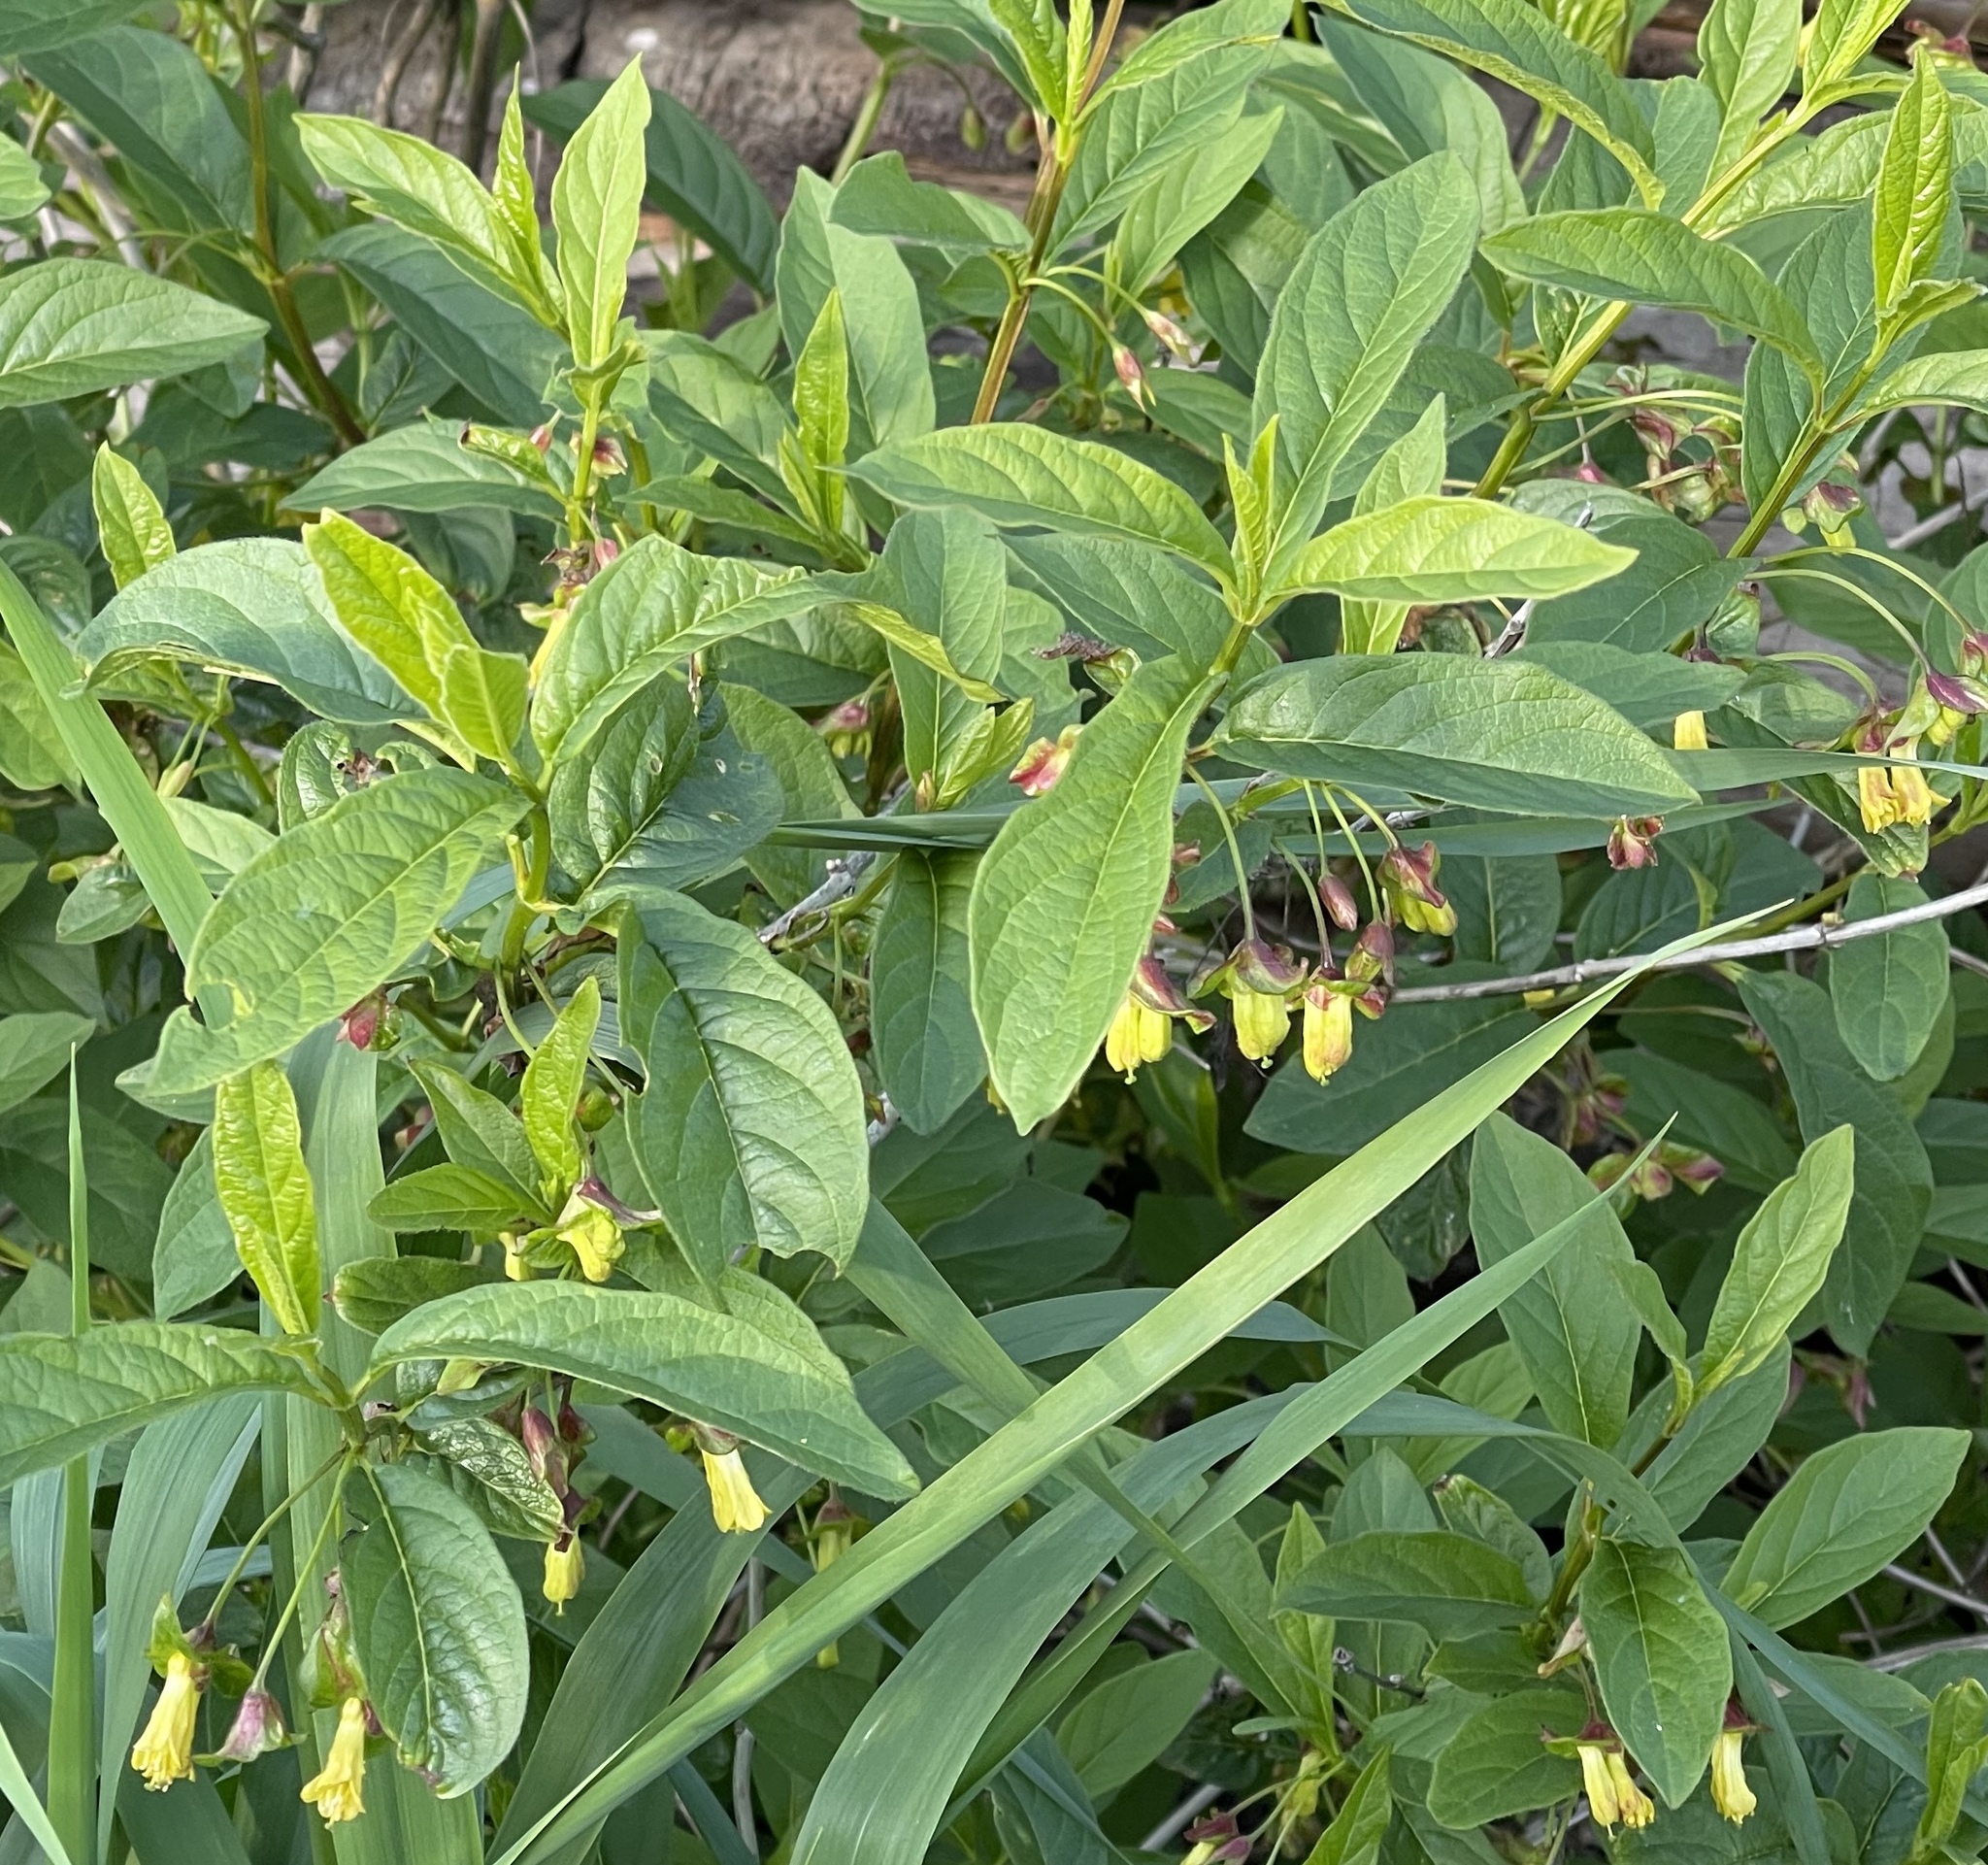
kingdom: Plantae
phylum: Tracheophyta
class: Magnoliopsida
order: Dipsacales
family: Caprifoliaceae
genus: Lonicera
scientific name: Lonicera involucrata
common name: Californian honeysuckle
